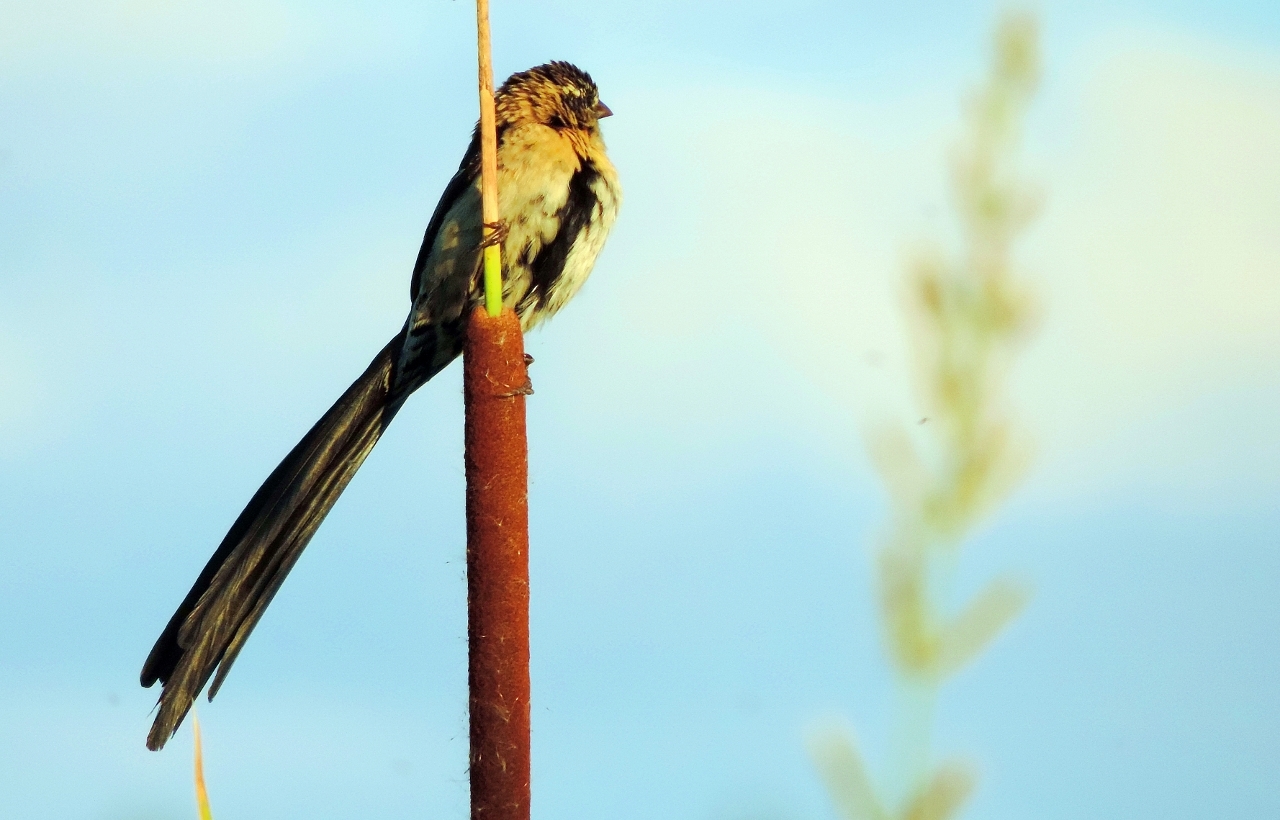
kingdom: Animalia
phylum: Chordata
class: Aves
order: Passeriformes
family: Ploceidae
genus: Euplectes
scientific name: Euplectes ardens
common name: Red-collared widowbird
